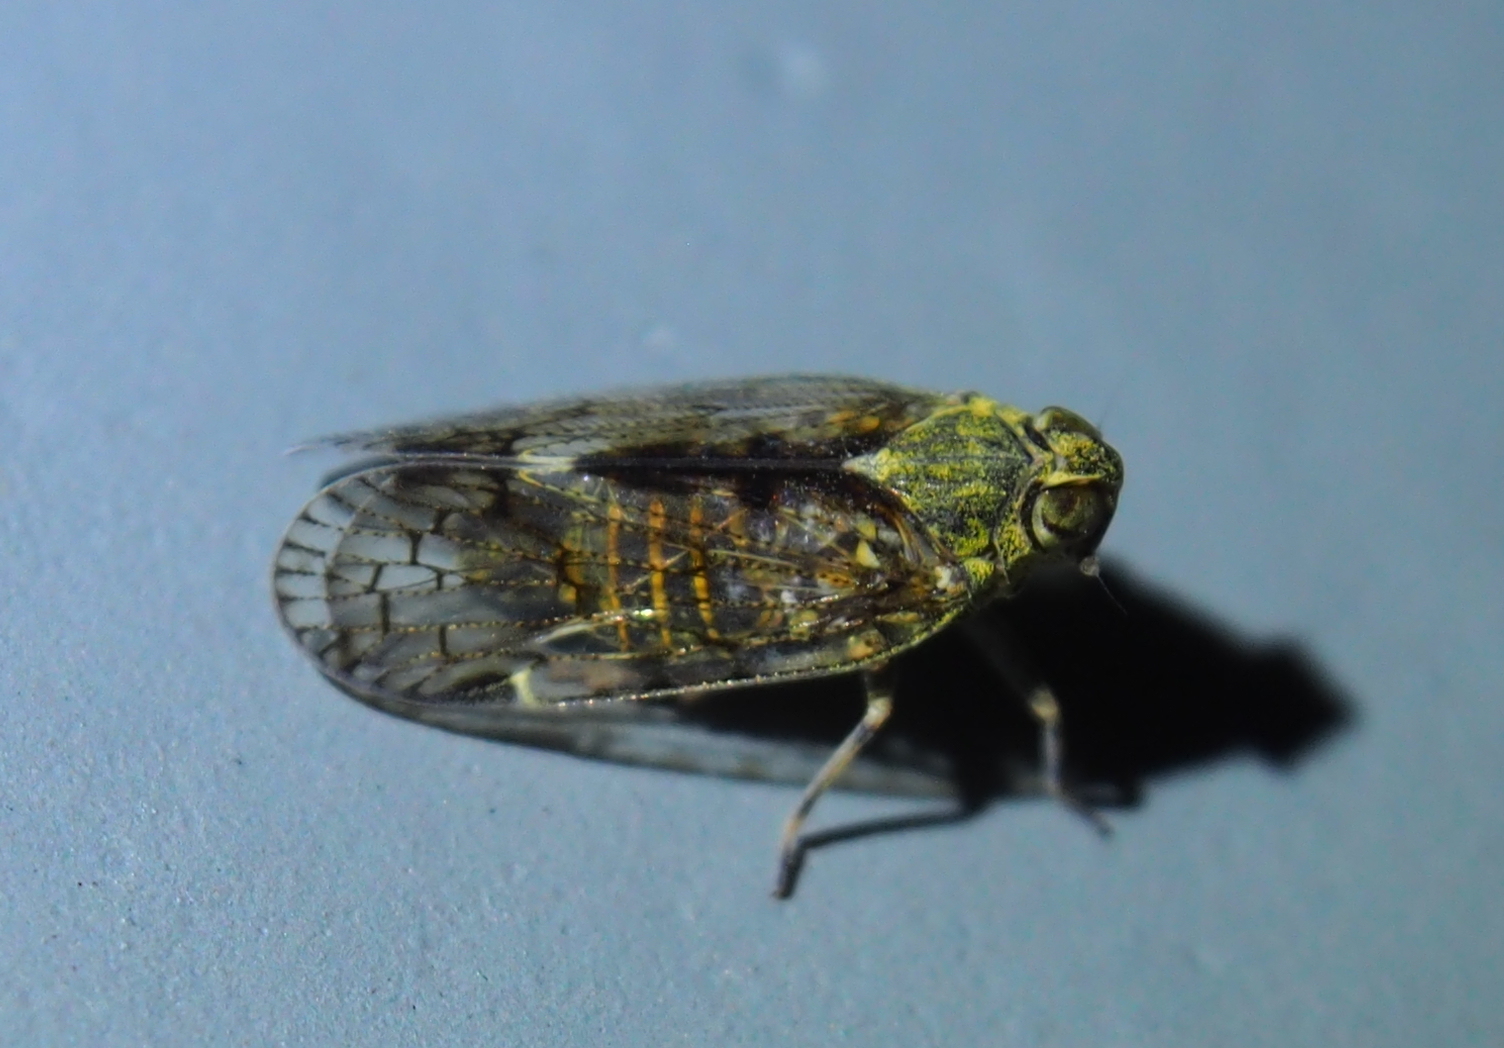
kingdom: Animalia
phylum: Arthropoda
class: Insecta
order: Hemiptera
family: Cixiidae
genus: Melanoliarus
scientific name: Melanoliarus placitus
